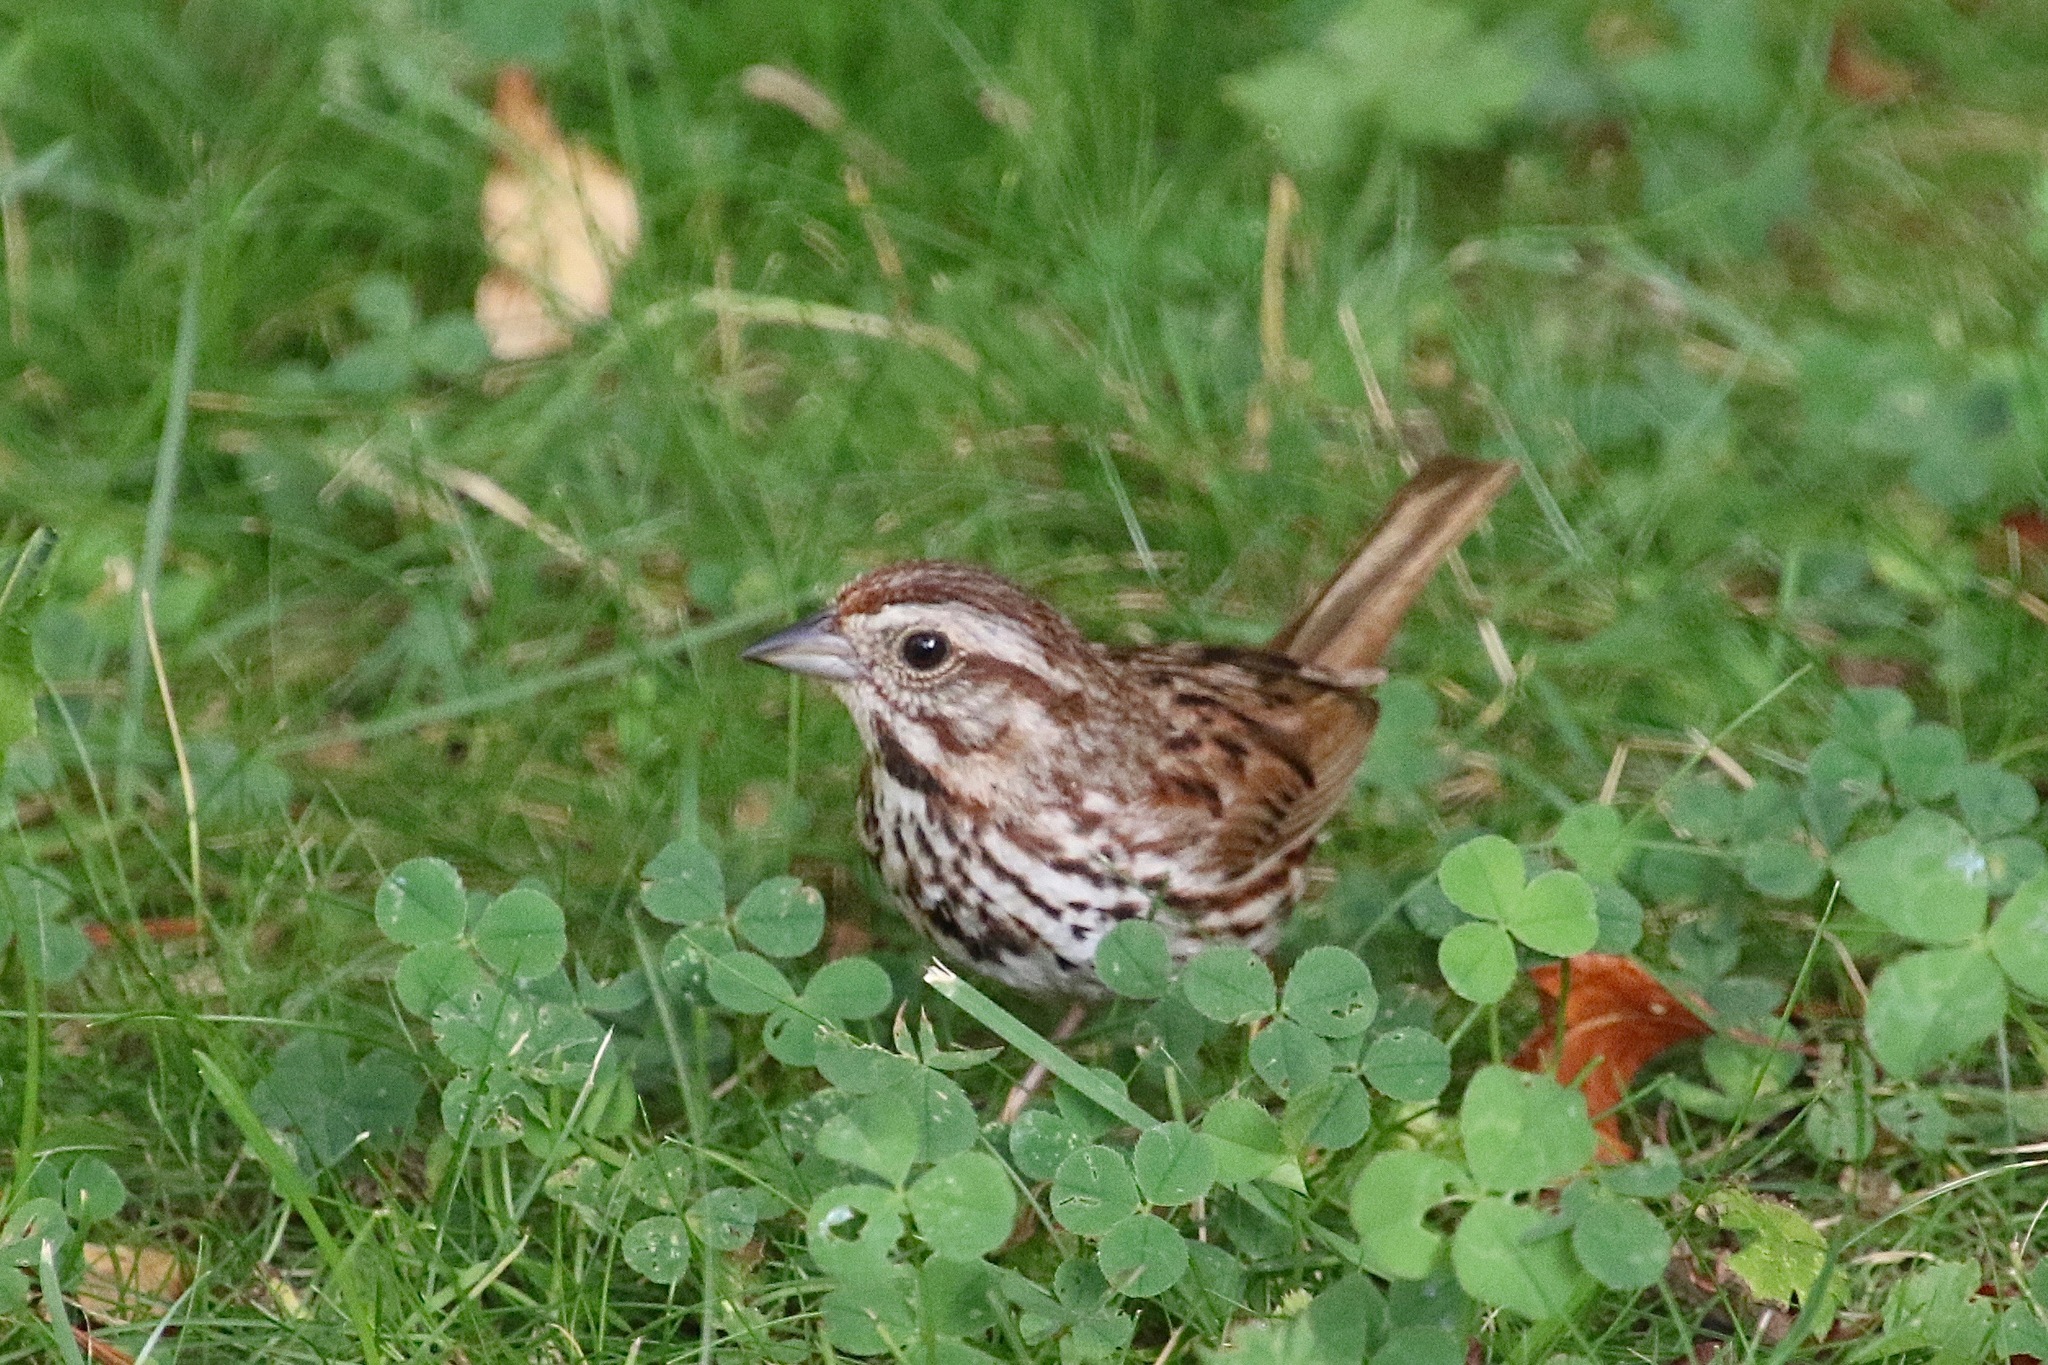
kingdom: Animalia
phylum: Chordata
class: Aves
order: Passeriformes
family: Passerellidae
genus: Melospiza
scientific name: Melospiza melodia
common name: Song sparrow
